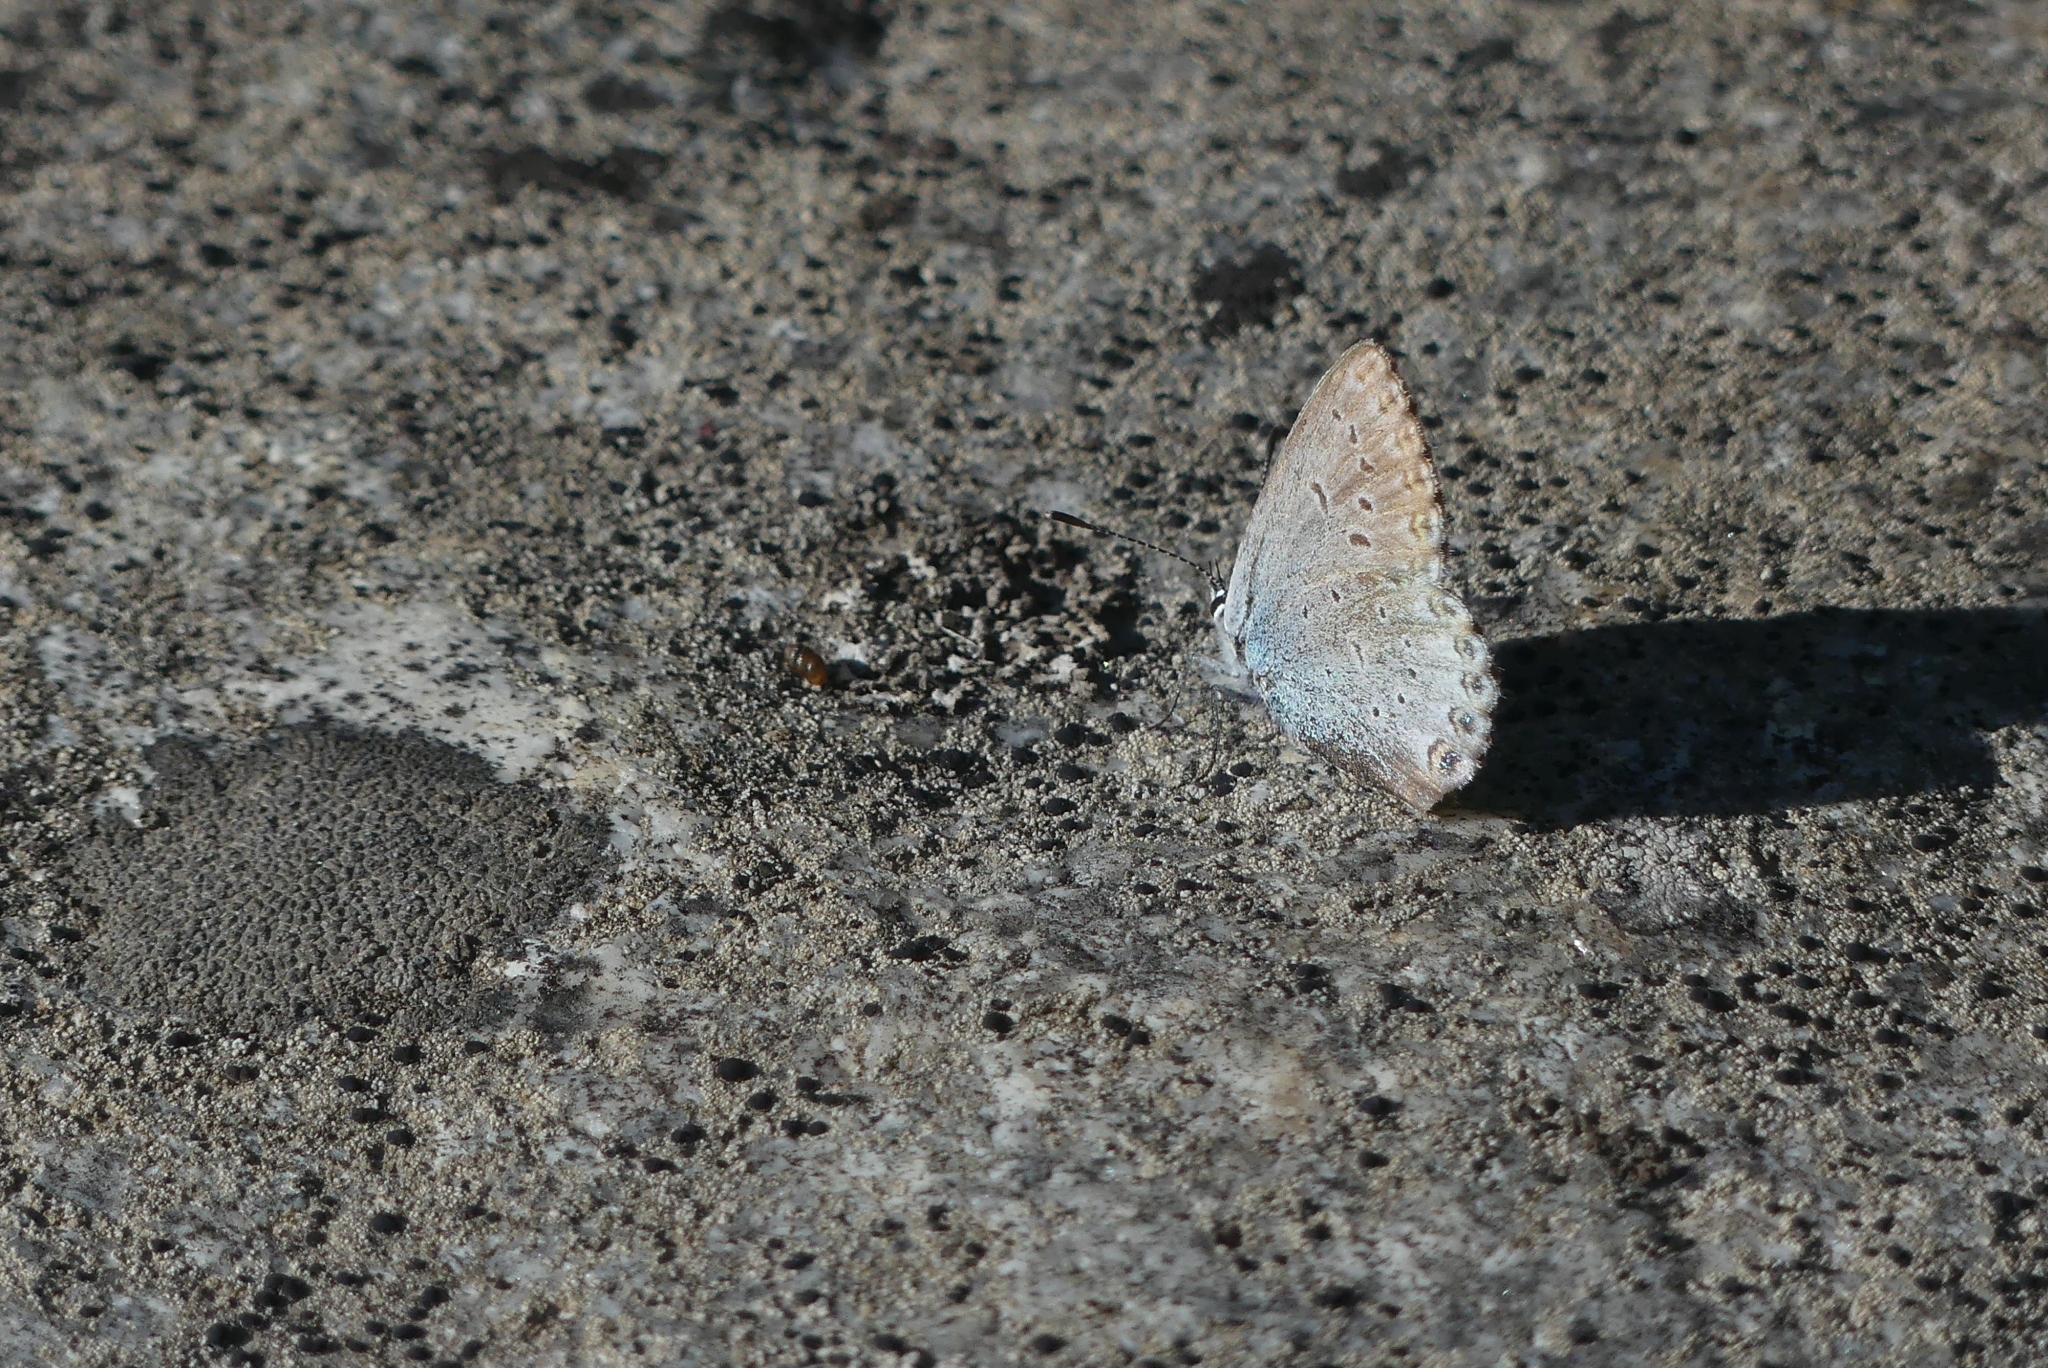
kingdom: Animalia
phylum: Arthropoda
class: Insecta
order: Lepidoptera
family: Lycaenidae
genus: Lycaeides
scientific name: Lycaeides idas
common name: Northern blue
